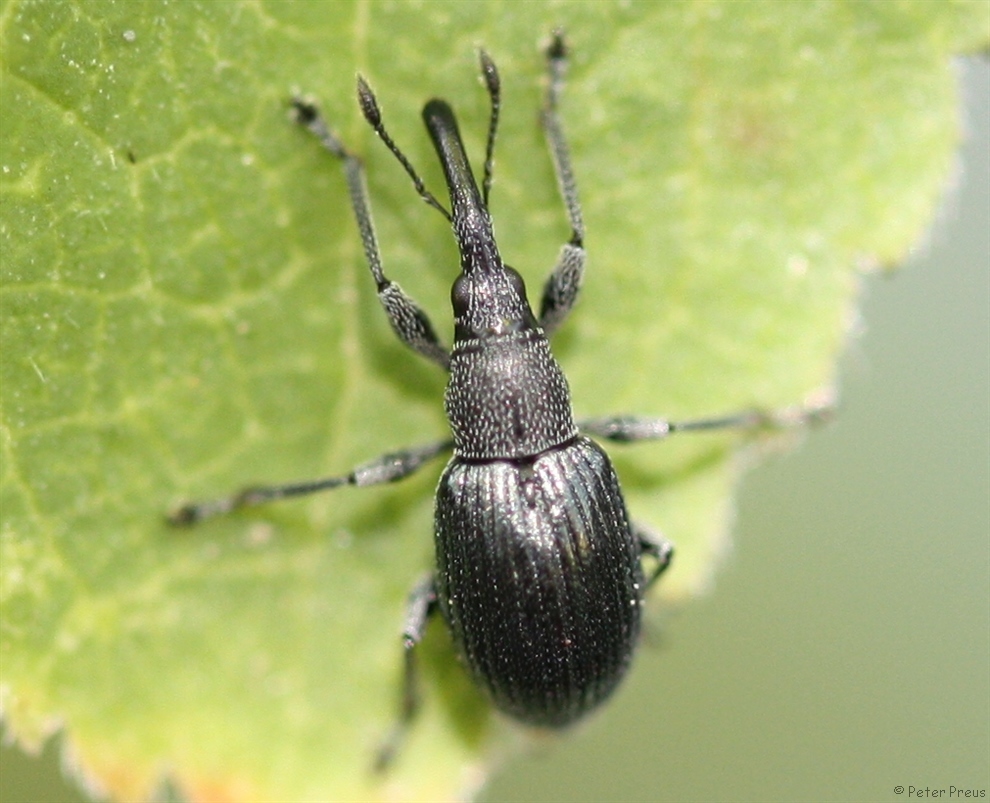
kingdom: Animalia
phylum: Arthropoda
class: Insecta
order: Coleoptera
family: Apionidae
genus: Aspidapion
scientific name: Aspidapion validum
